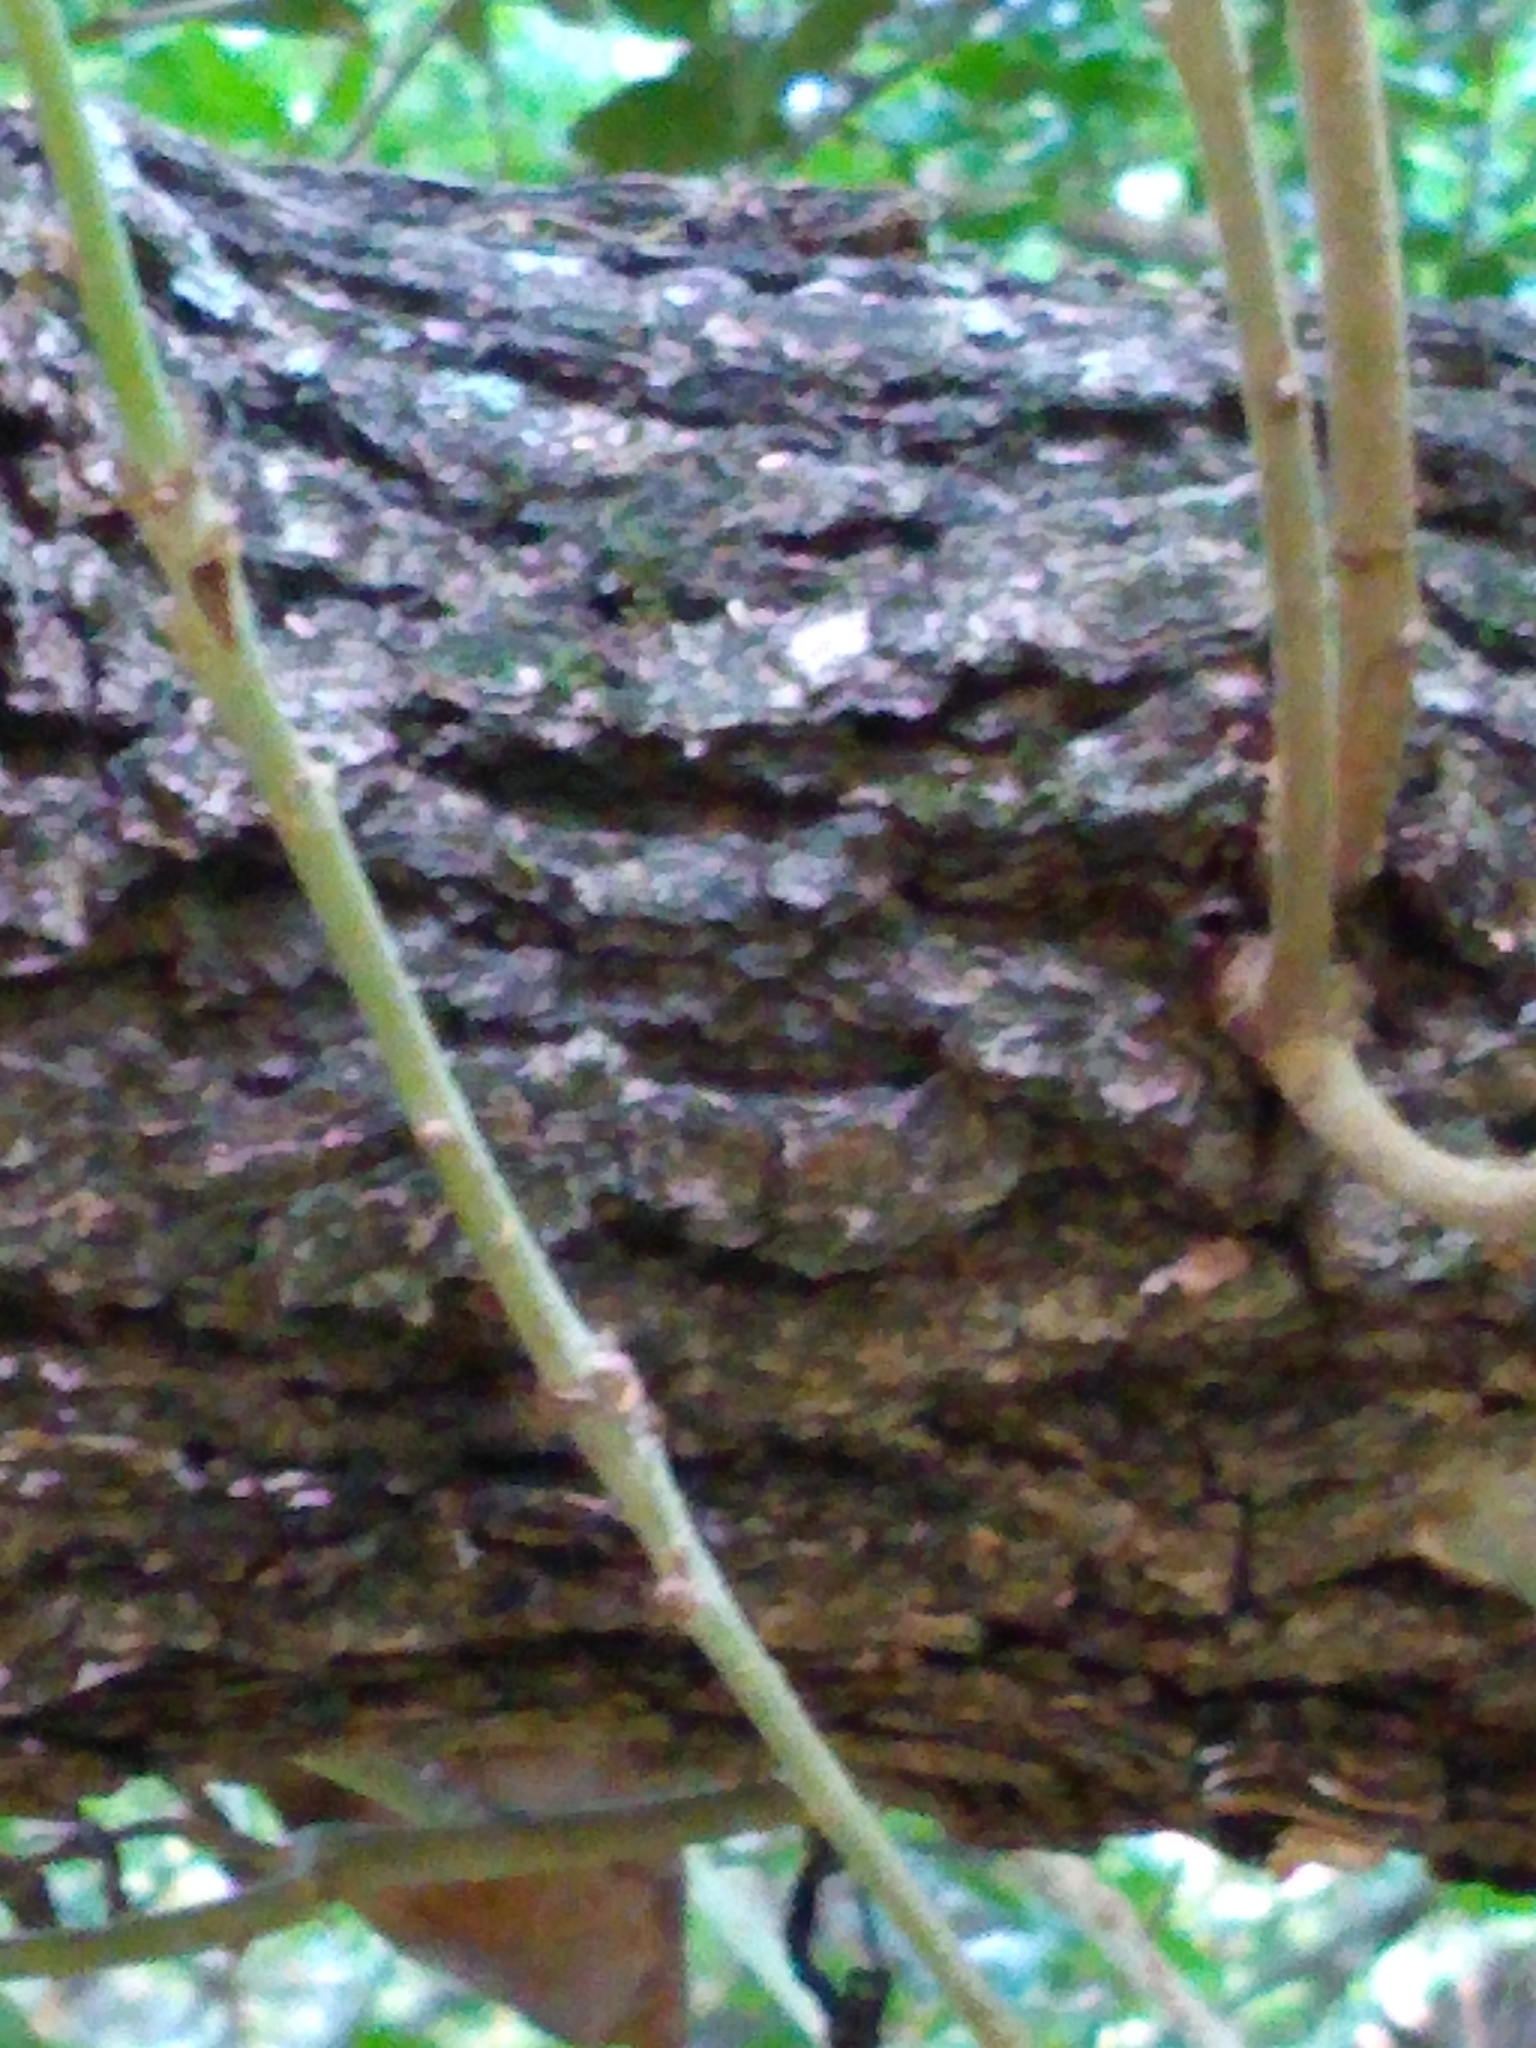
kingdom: Plantae
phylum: Tracheophyta
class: Magnoliopsida
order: Fagales
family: Fagaceae
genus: Quercus
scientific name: Quercus sinuata
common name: Durand oak
